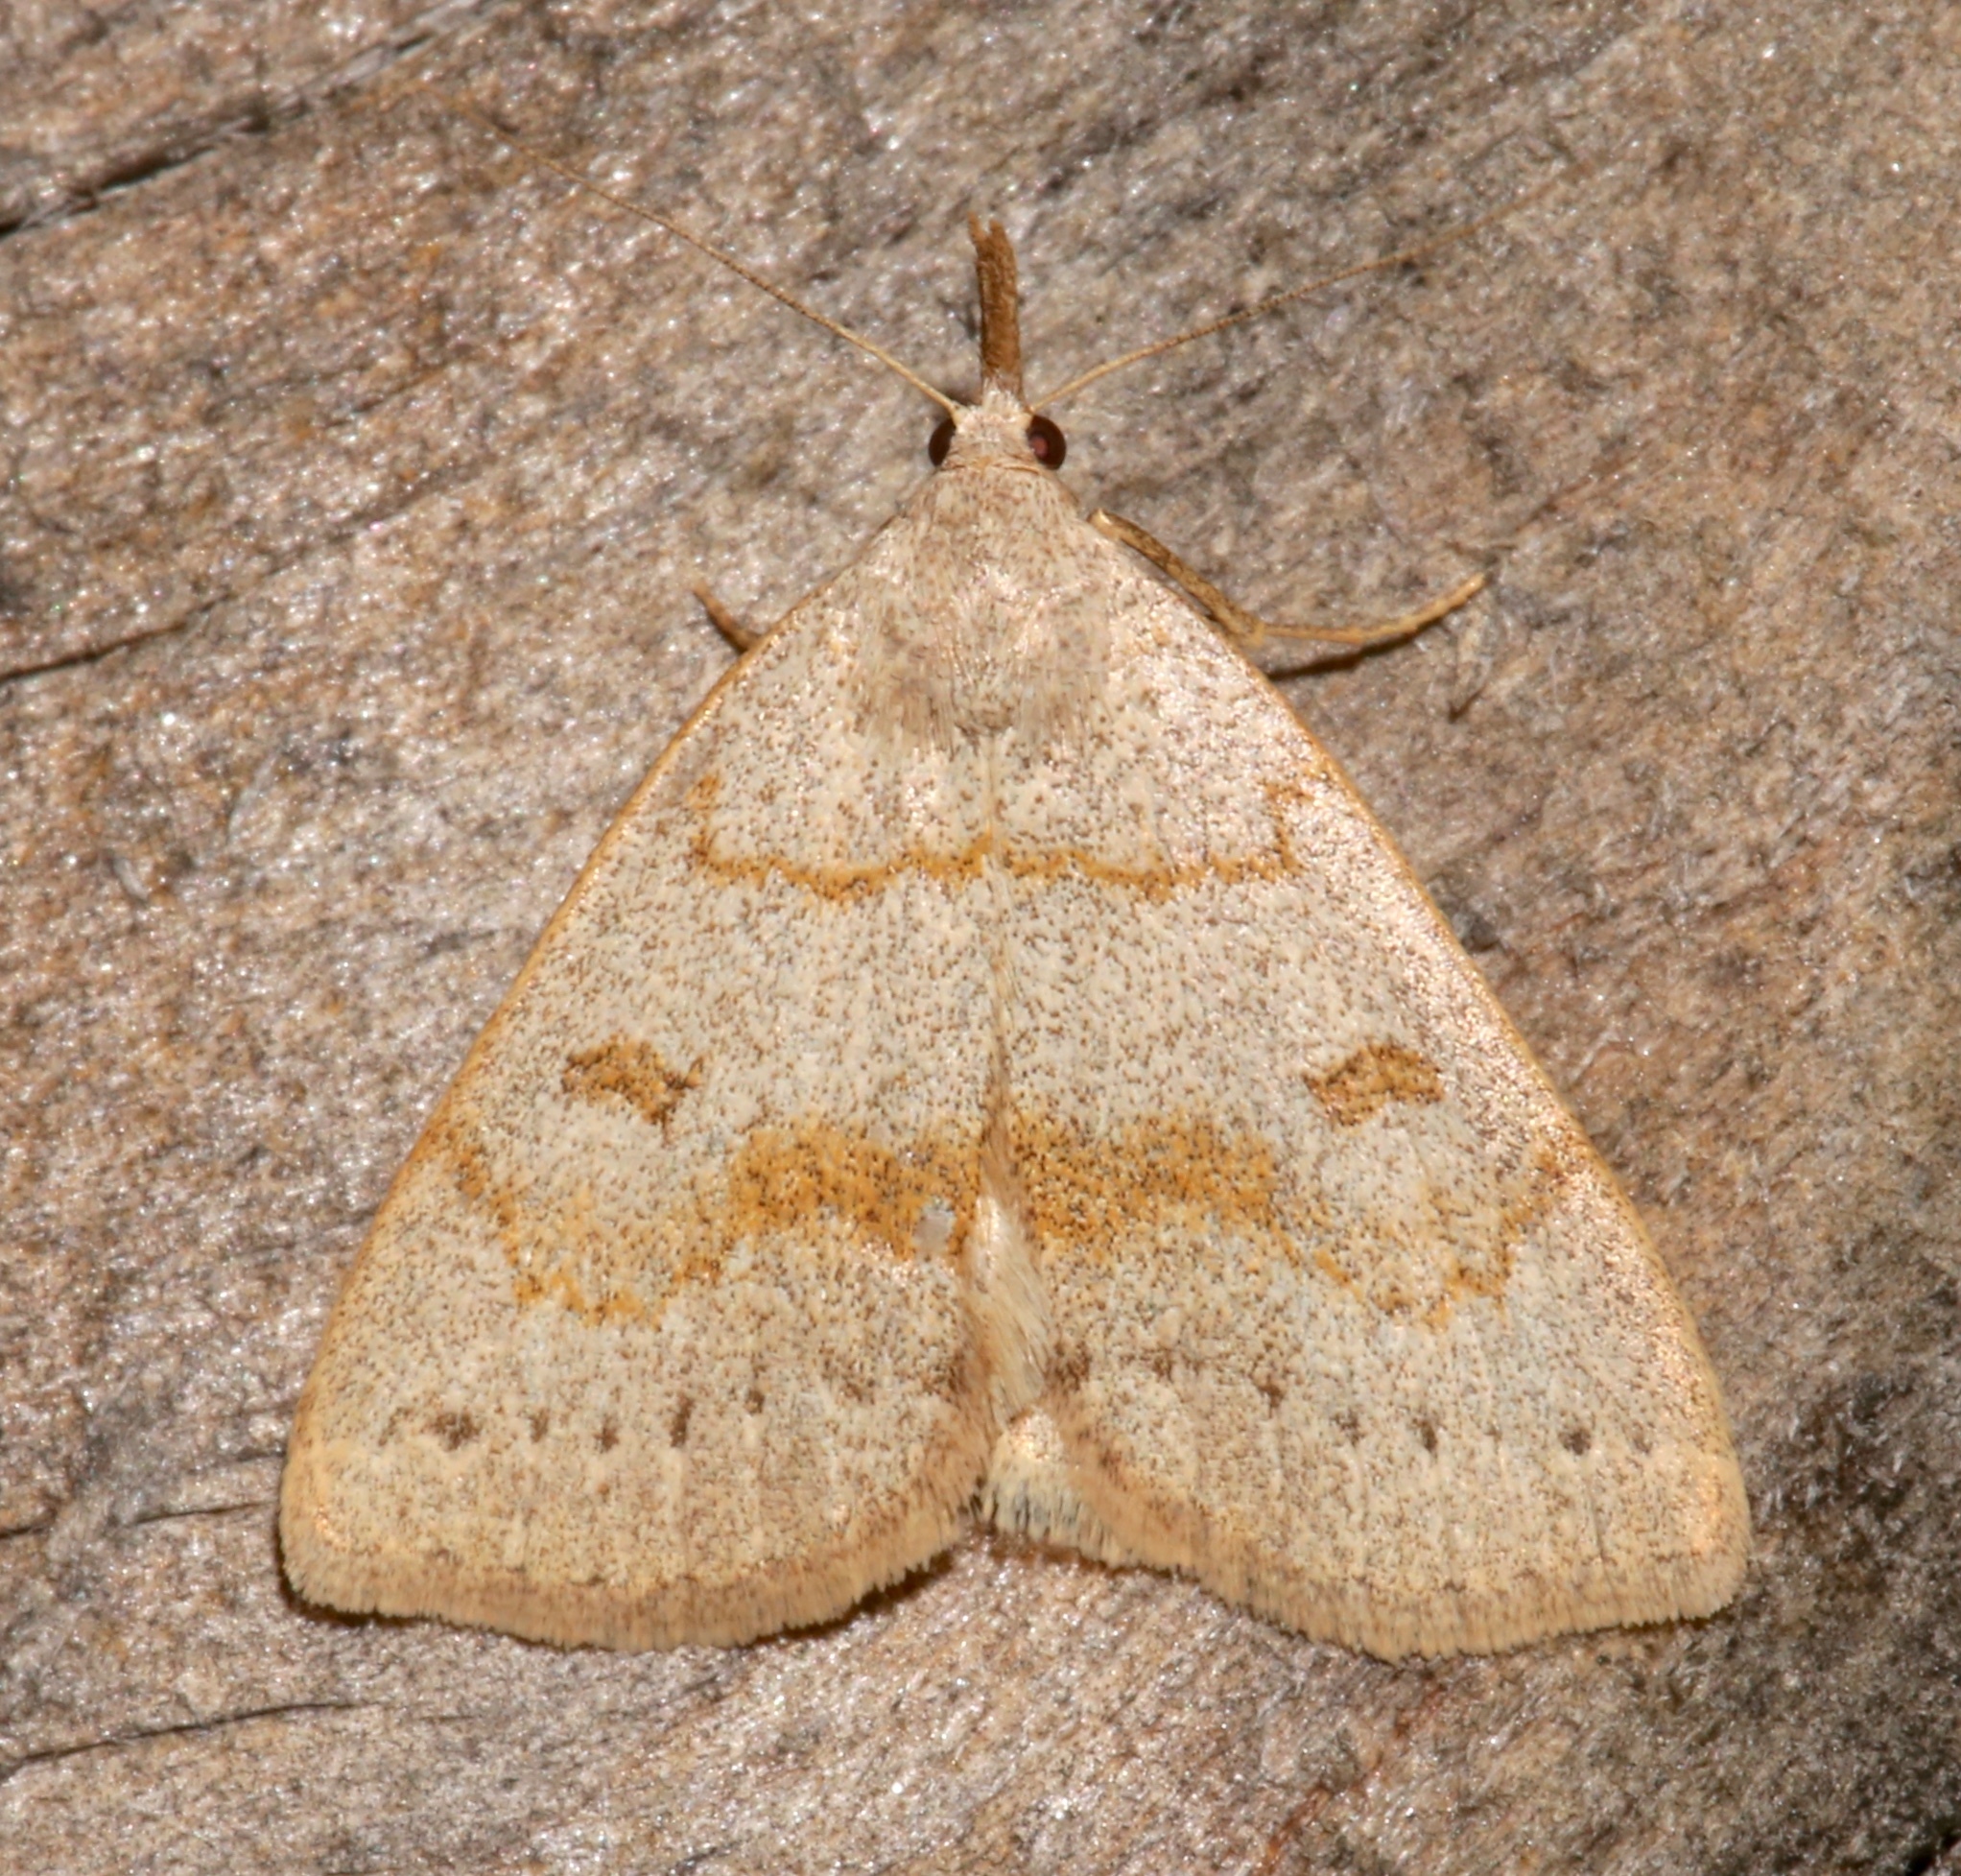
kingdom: Animalia
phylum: Arthropoda
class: Insecta
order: Lepidoptera
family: Erebidae
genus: Macrochilo
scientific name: Macrochilo morbidalis
